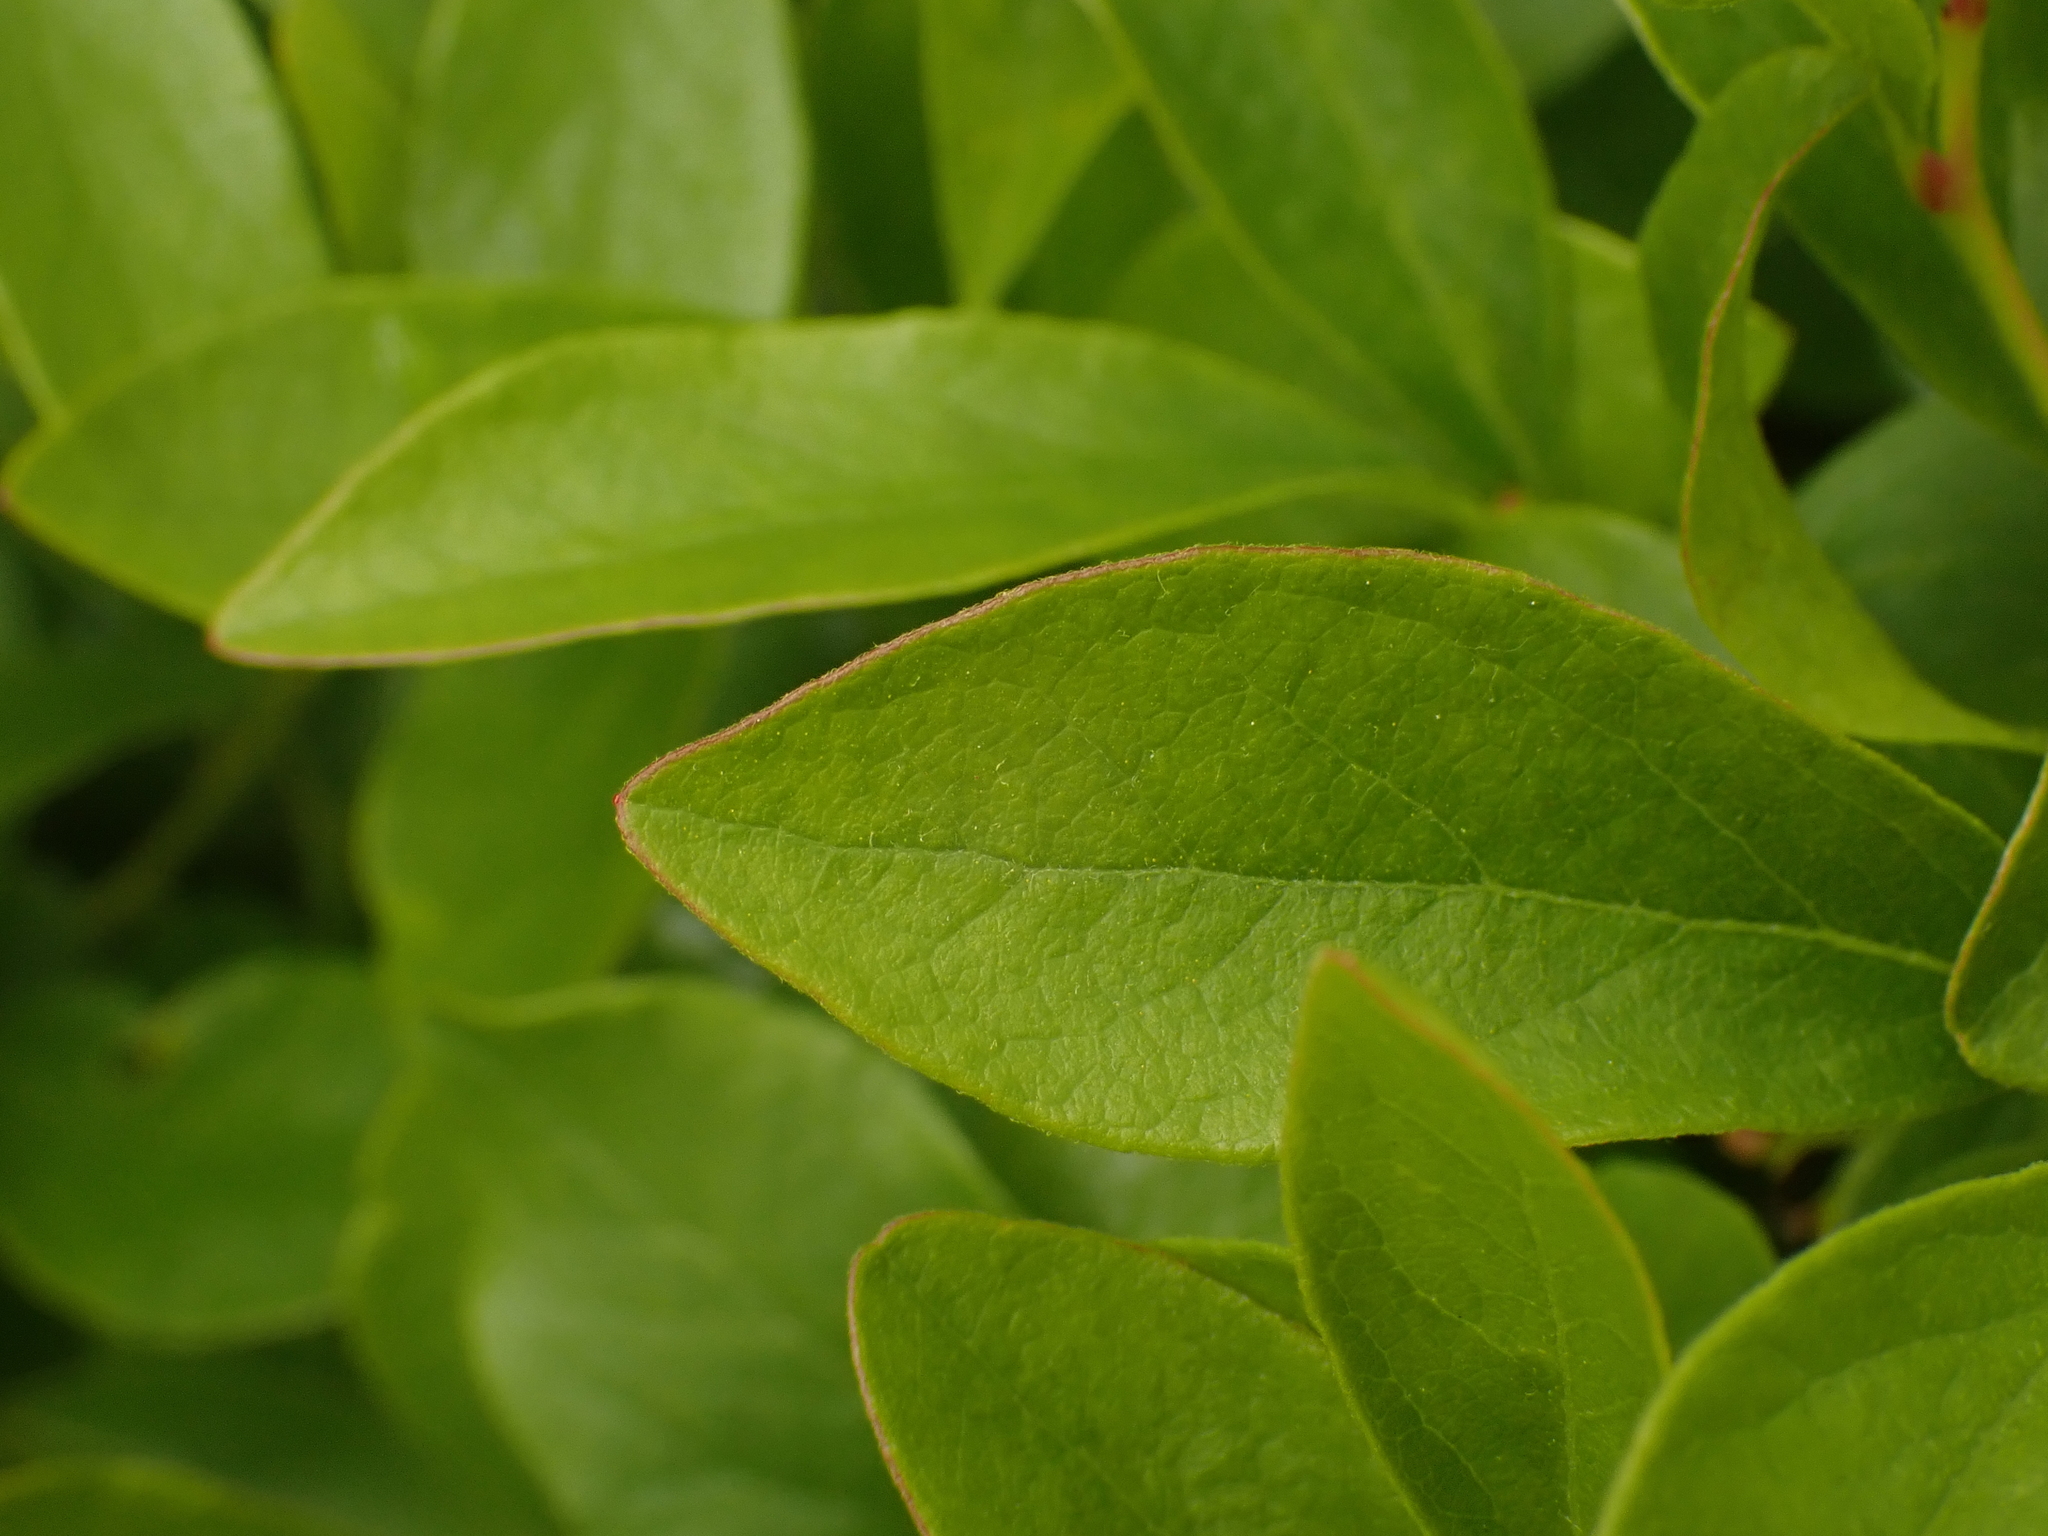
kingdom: Plantae
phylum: Tracheophyta
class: Magnoliopsida
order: Ericales
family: Ericaceae
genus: Gaylussacia
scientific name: Gaylussacia baccata
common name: Black huckleberry
